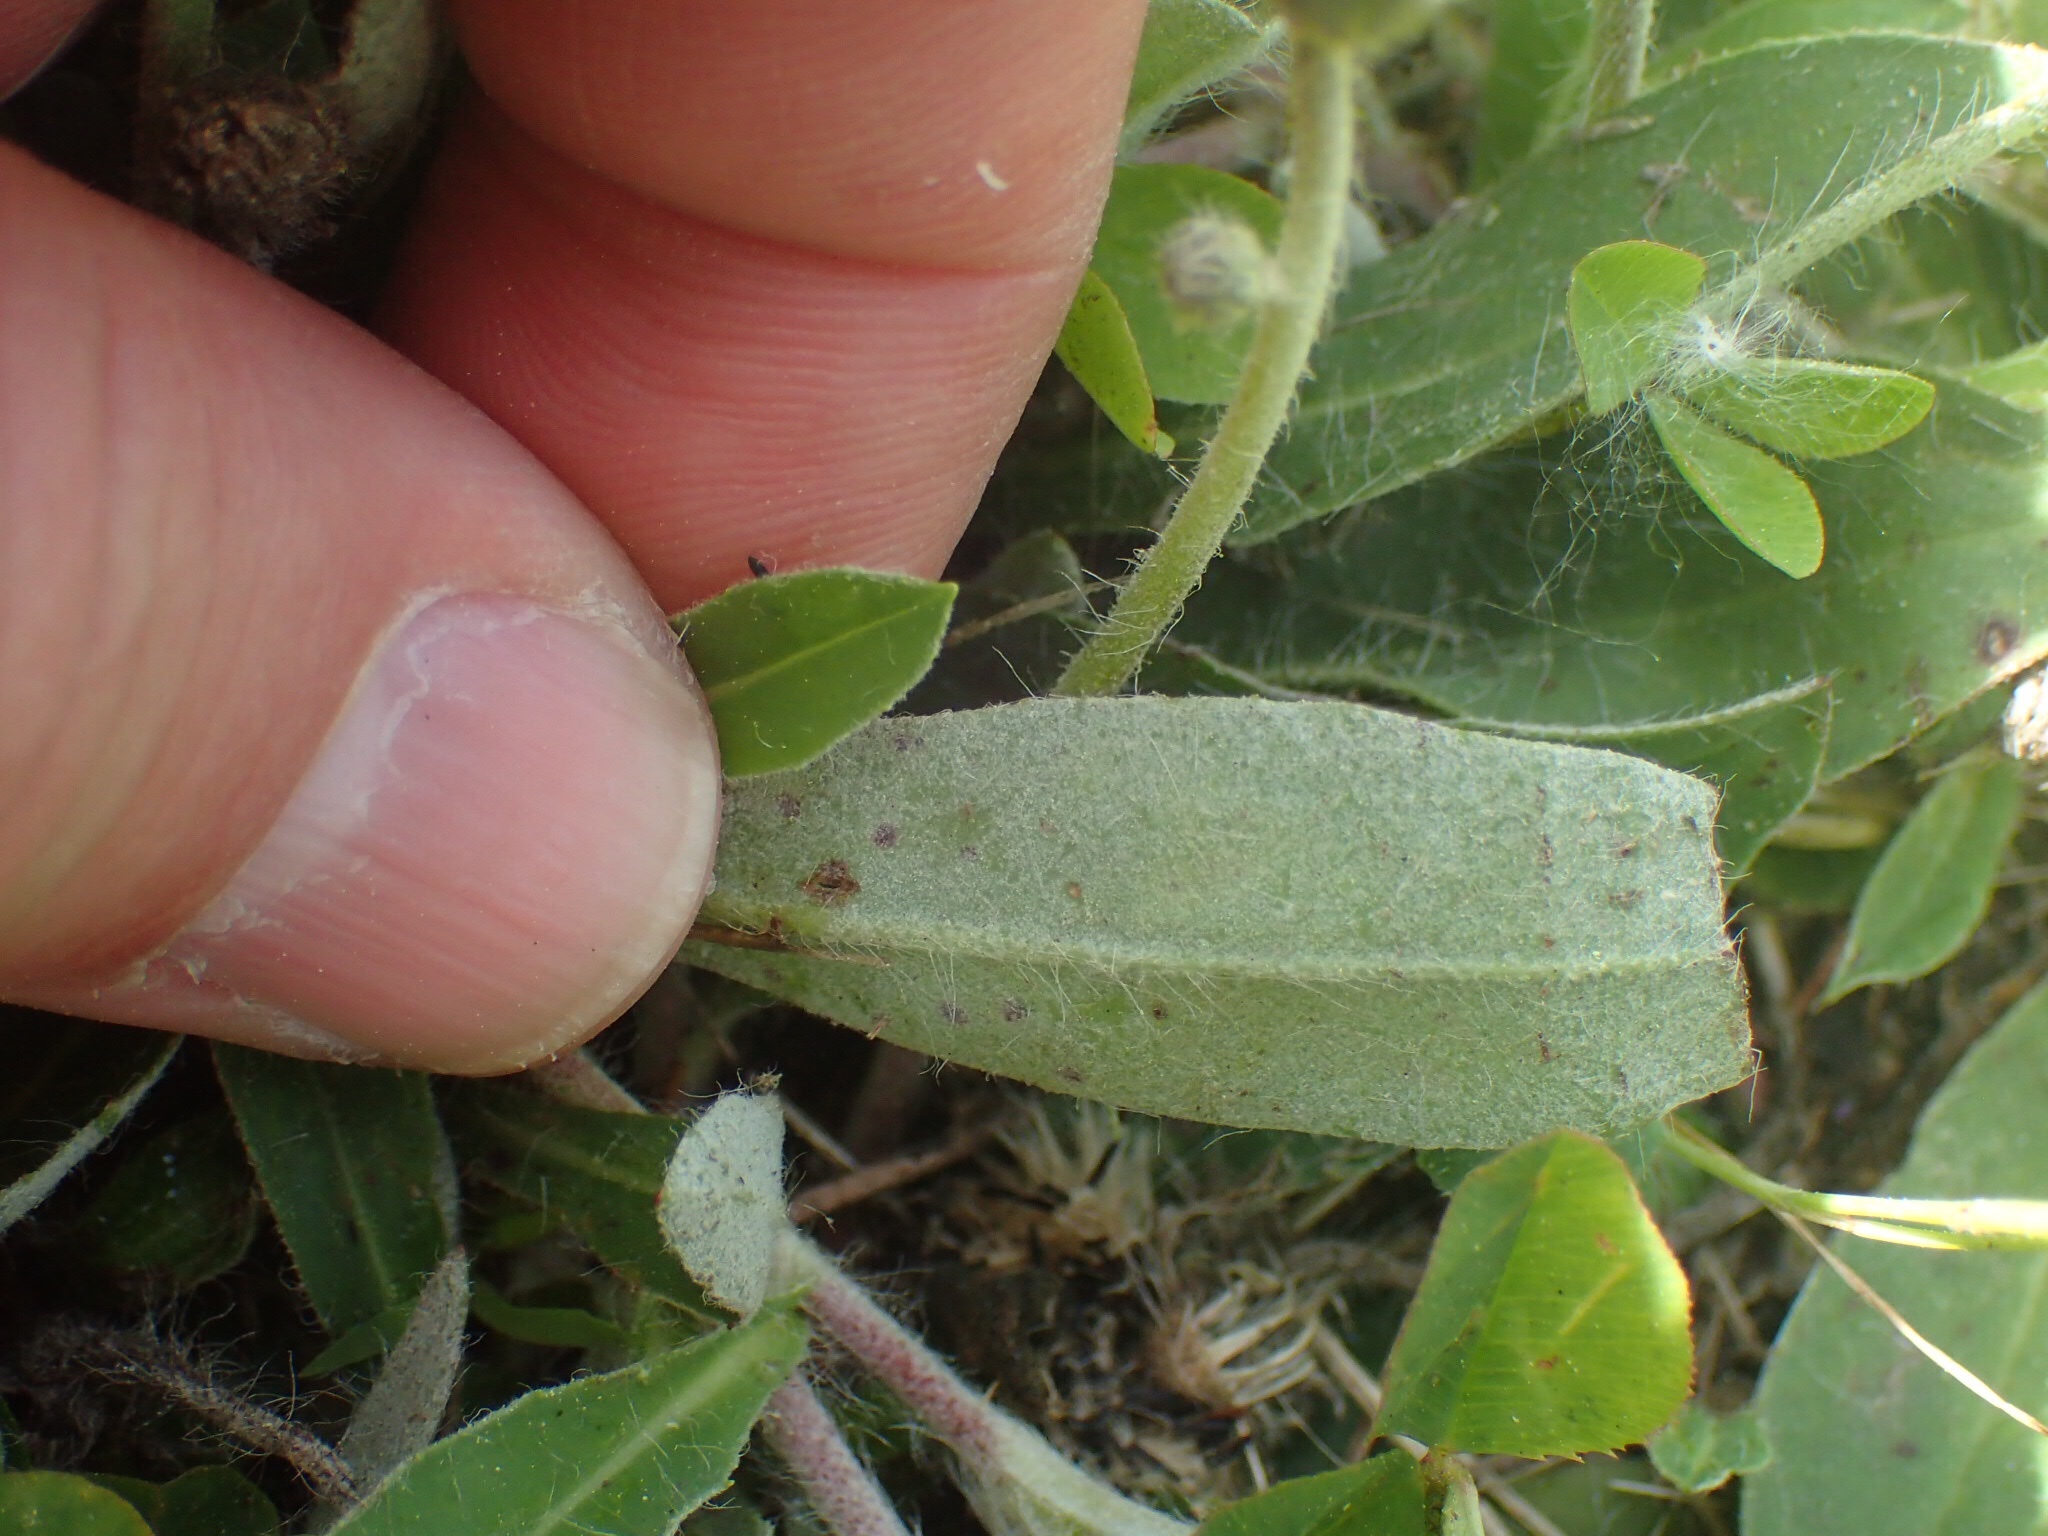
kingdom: Plantae
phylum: Tracheophyta
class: Magnoliopsida
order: Asterales
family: Asteraceae
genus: Pilosella
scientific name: Pilosella officinarum
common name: Mouse-ear hawkweed
